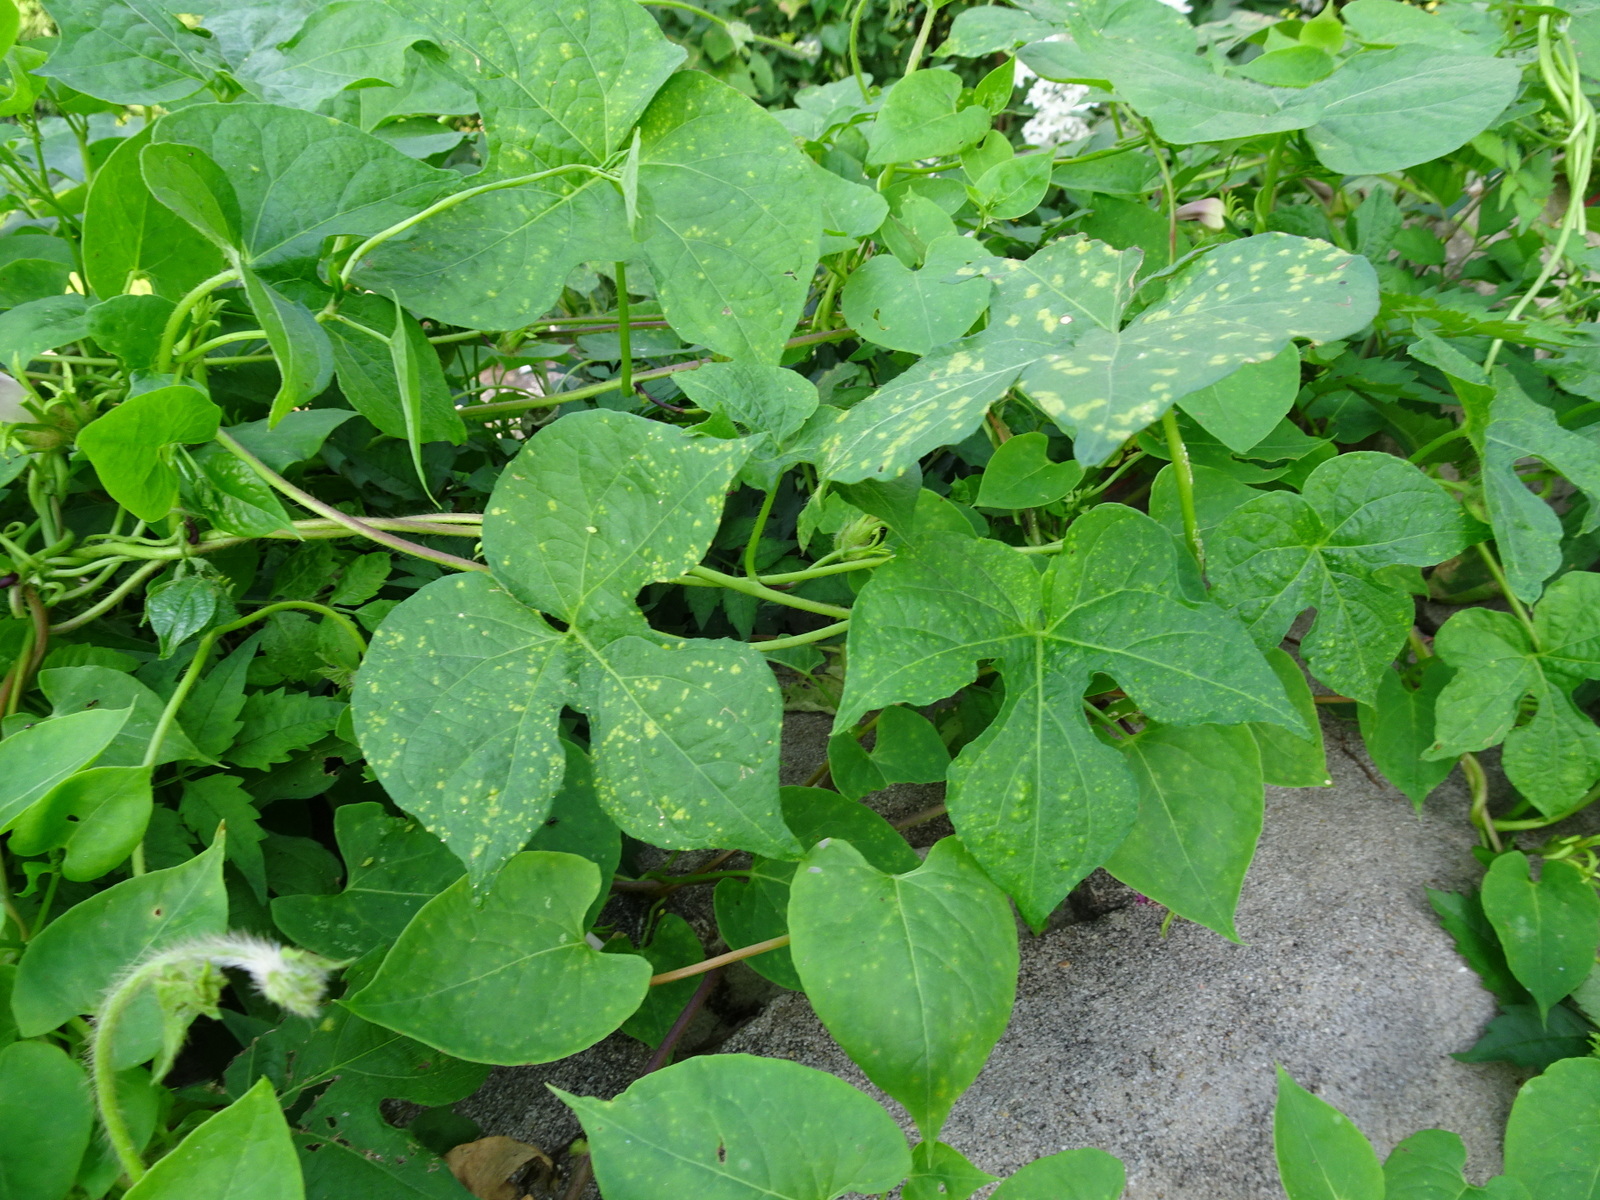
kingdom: Plantae
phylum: Tracheophyta
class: Magnoliopsida
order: Solanales
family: Convolvulaceae
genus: Ipomoea
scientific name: Ipomoea hederacea
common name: Ivy-leaved morning-glory
